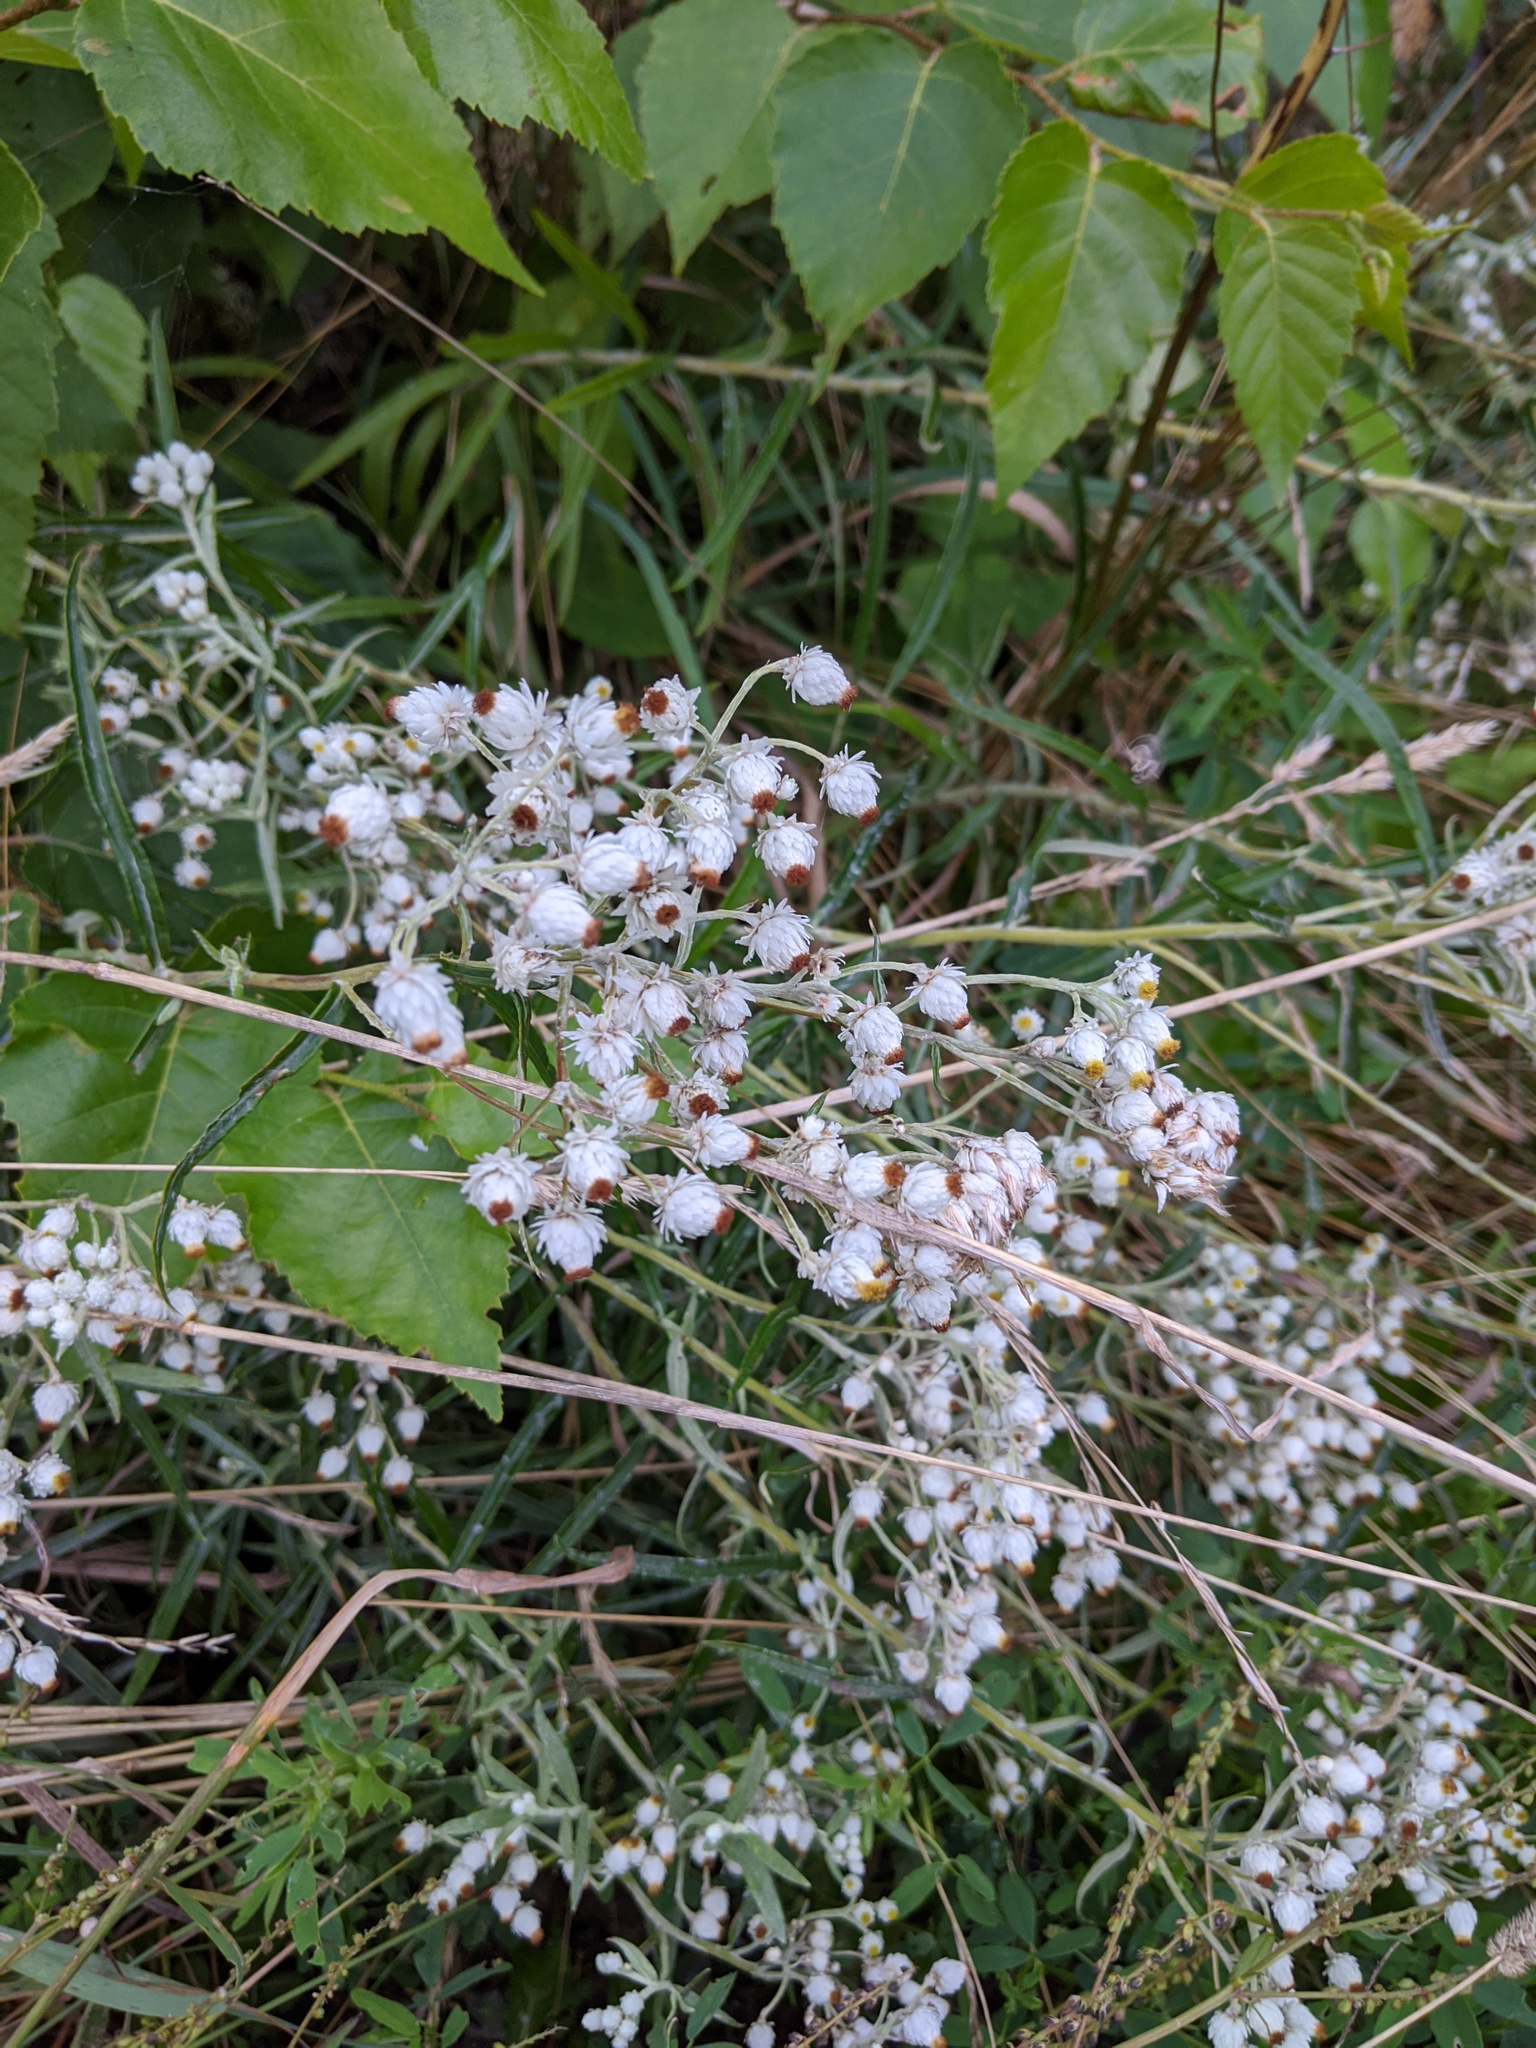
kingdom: Plantae
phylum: Tracheophyta
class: Magnoliopsida
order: Asterales
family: Asteraceae
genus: Anaphalis
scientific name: Anaphalis margaritacea
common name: Pearly everlasting
